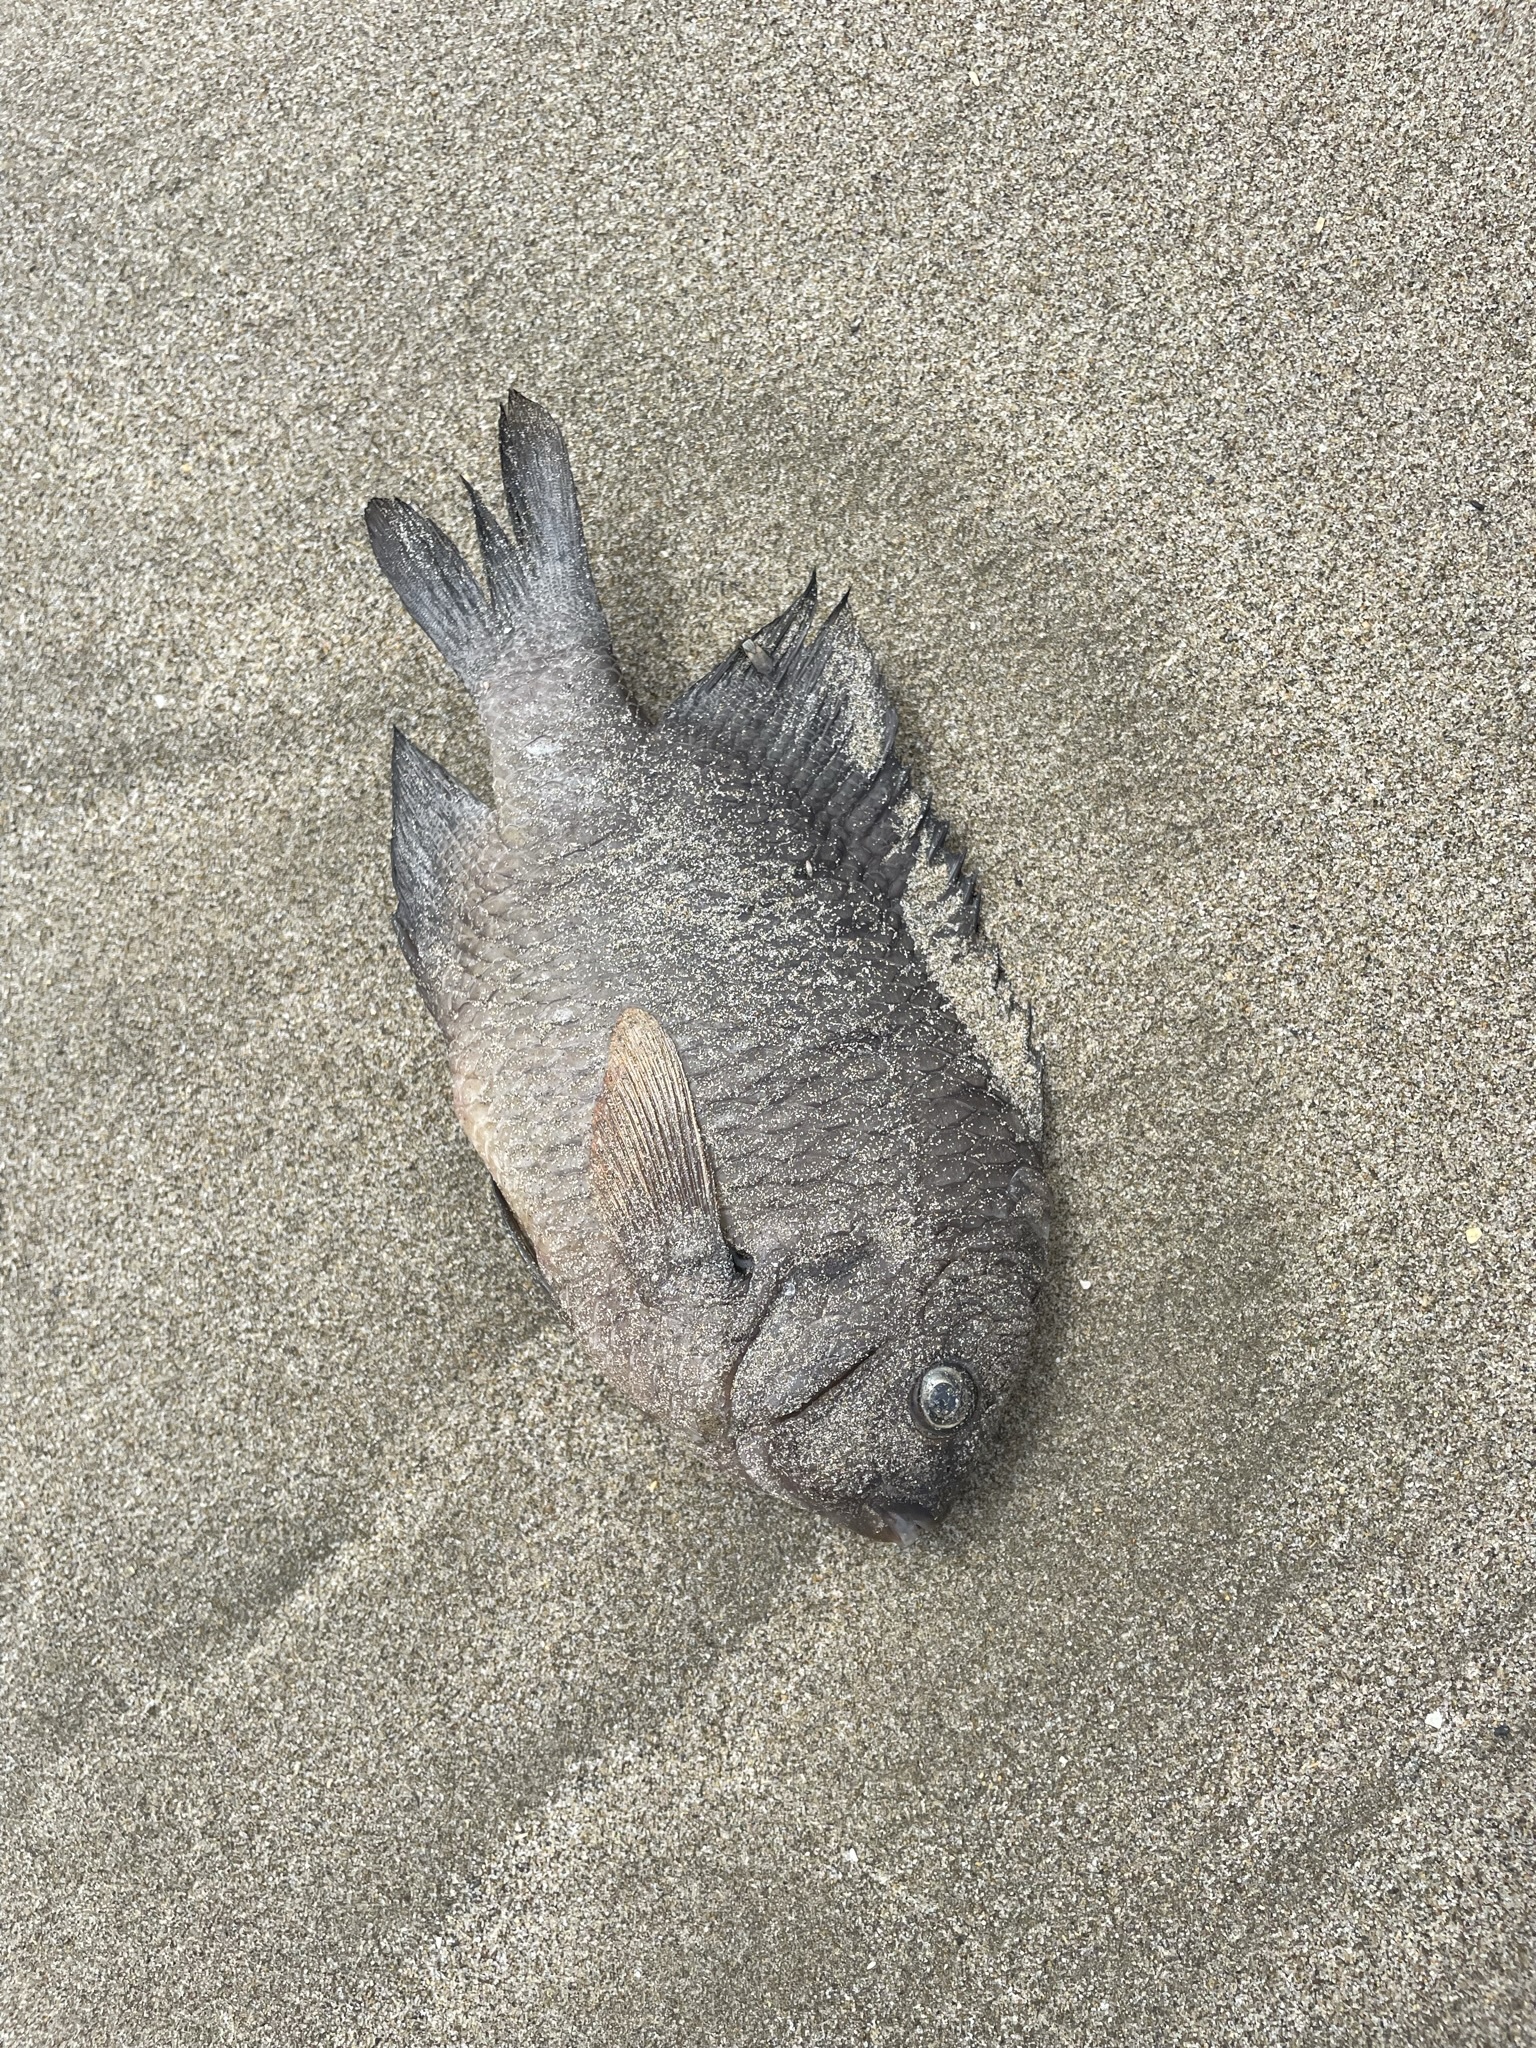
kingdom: Animalia
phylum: Chordata
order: Perciformes
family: Pomacentridae
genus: Nexilosus
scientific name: Nexilosus latifrons
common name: Coquito damsel
